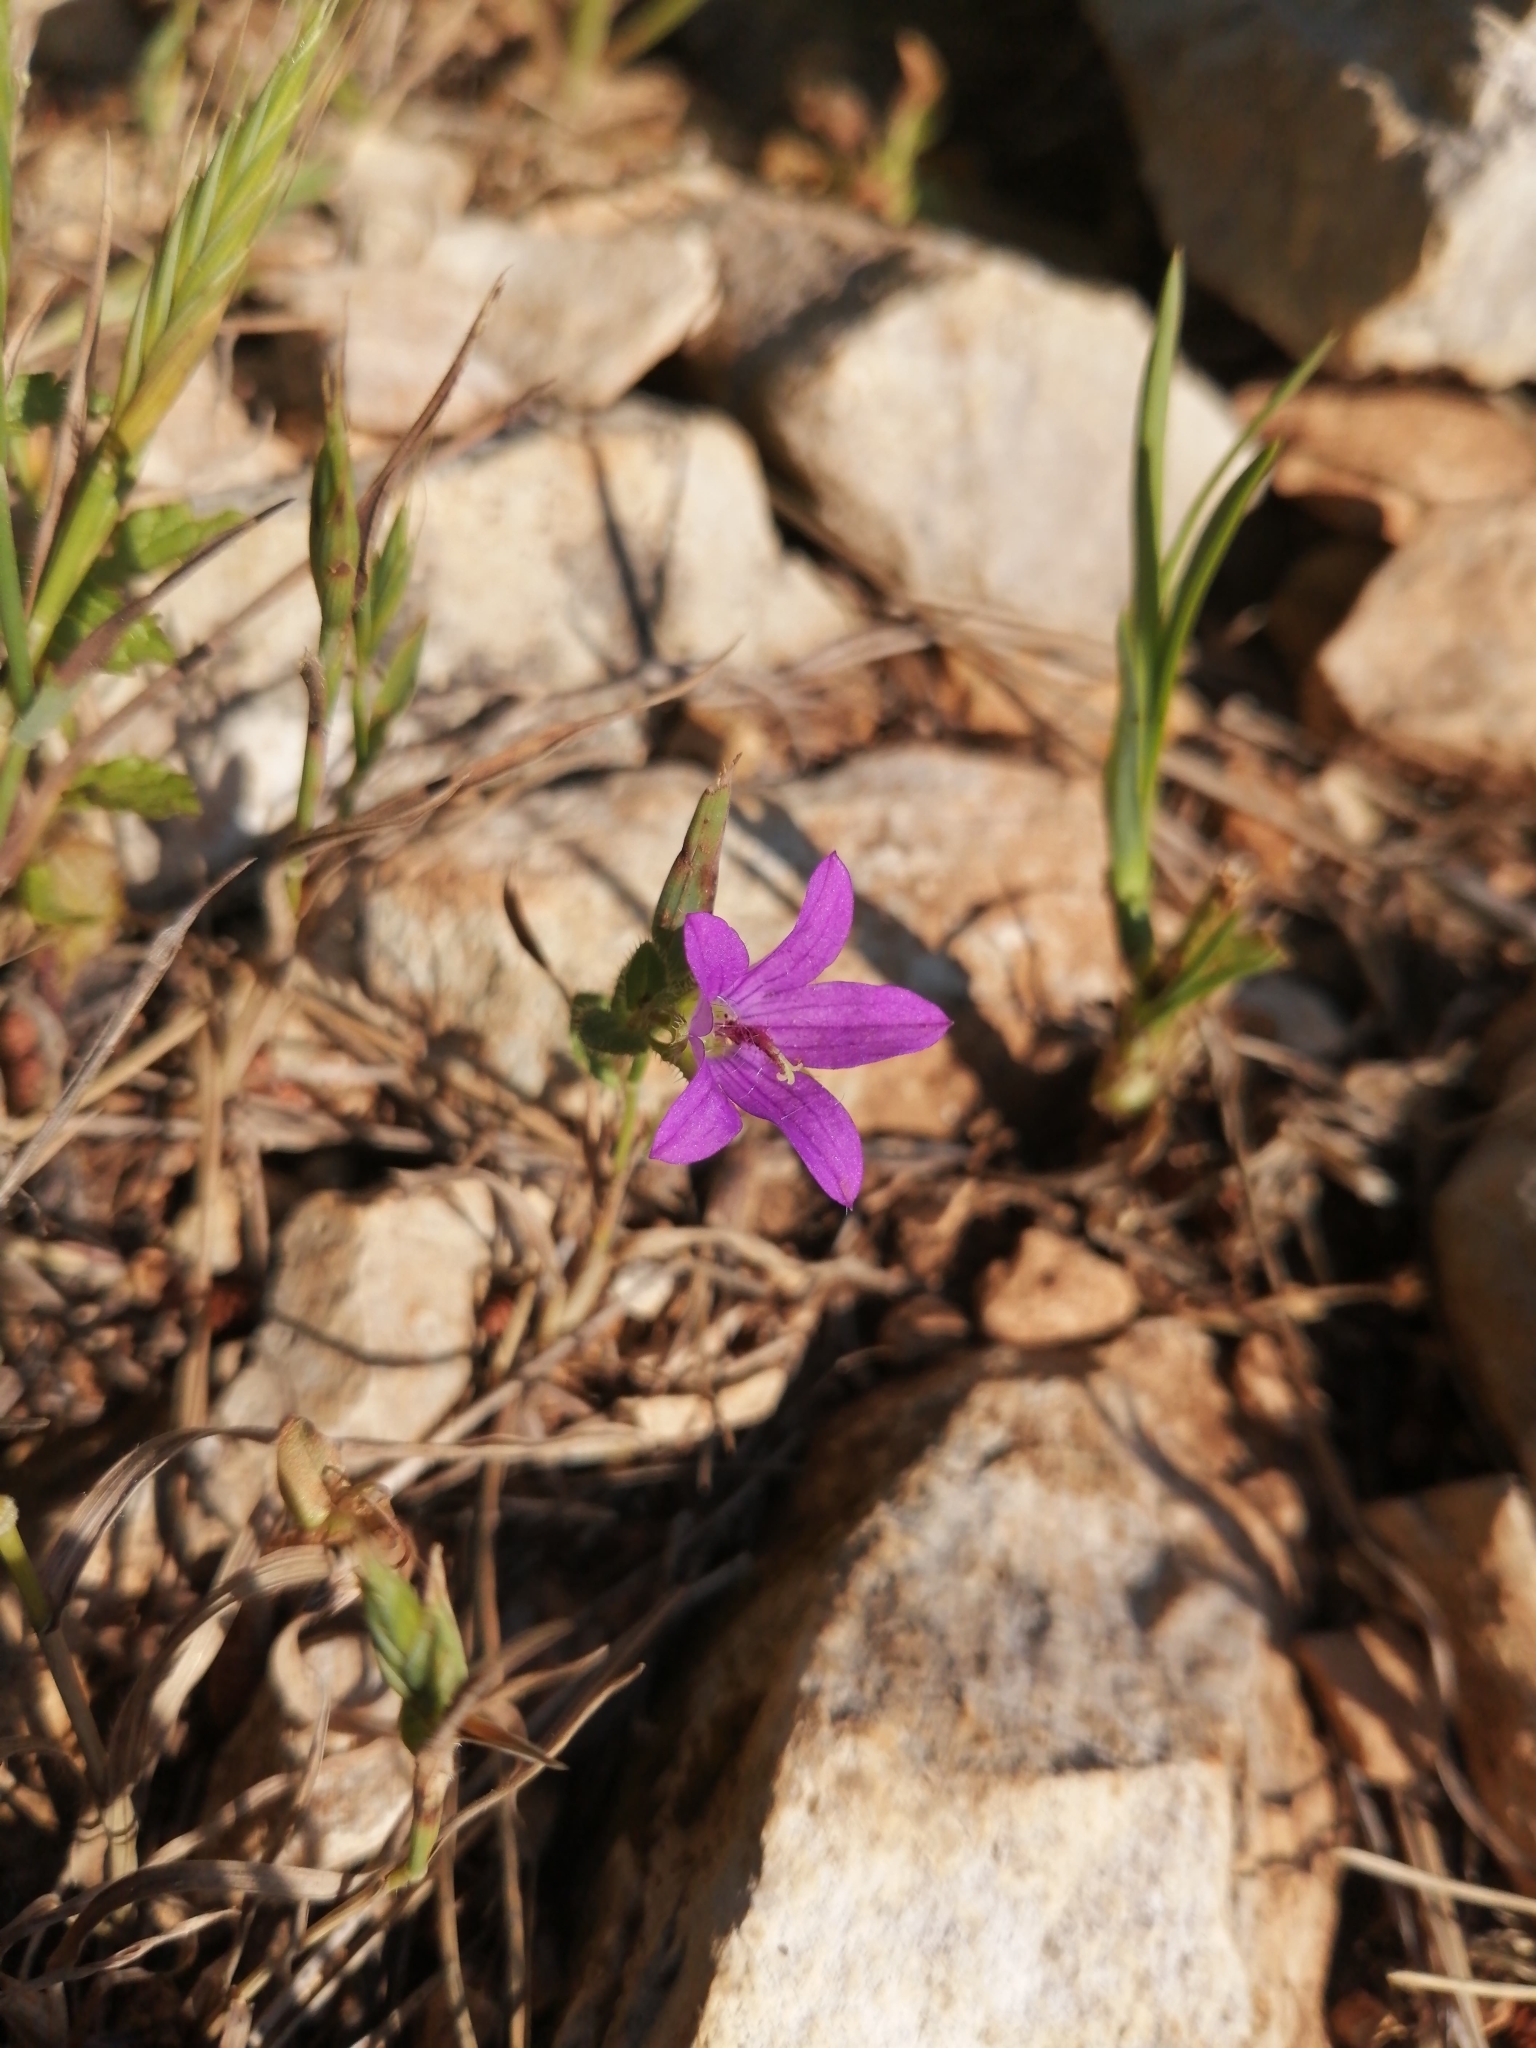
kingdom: Plantae
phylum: Tracheophyta
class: Magnoliopsida
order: Geraniales
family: Geraniaceae
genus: Erodium
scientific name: Erodium malacoides
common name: Soft stork's-bill
